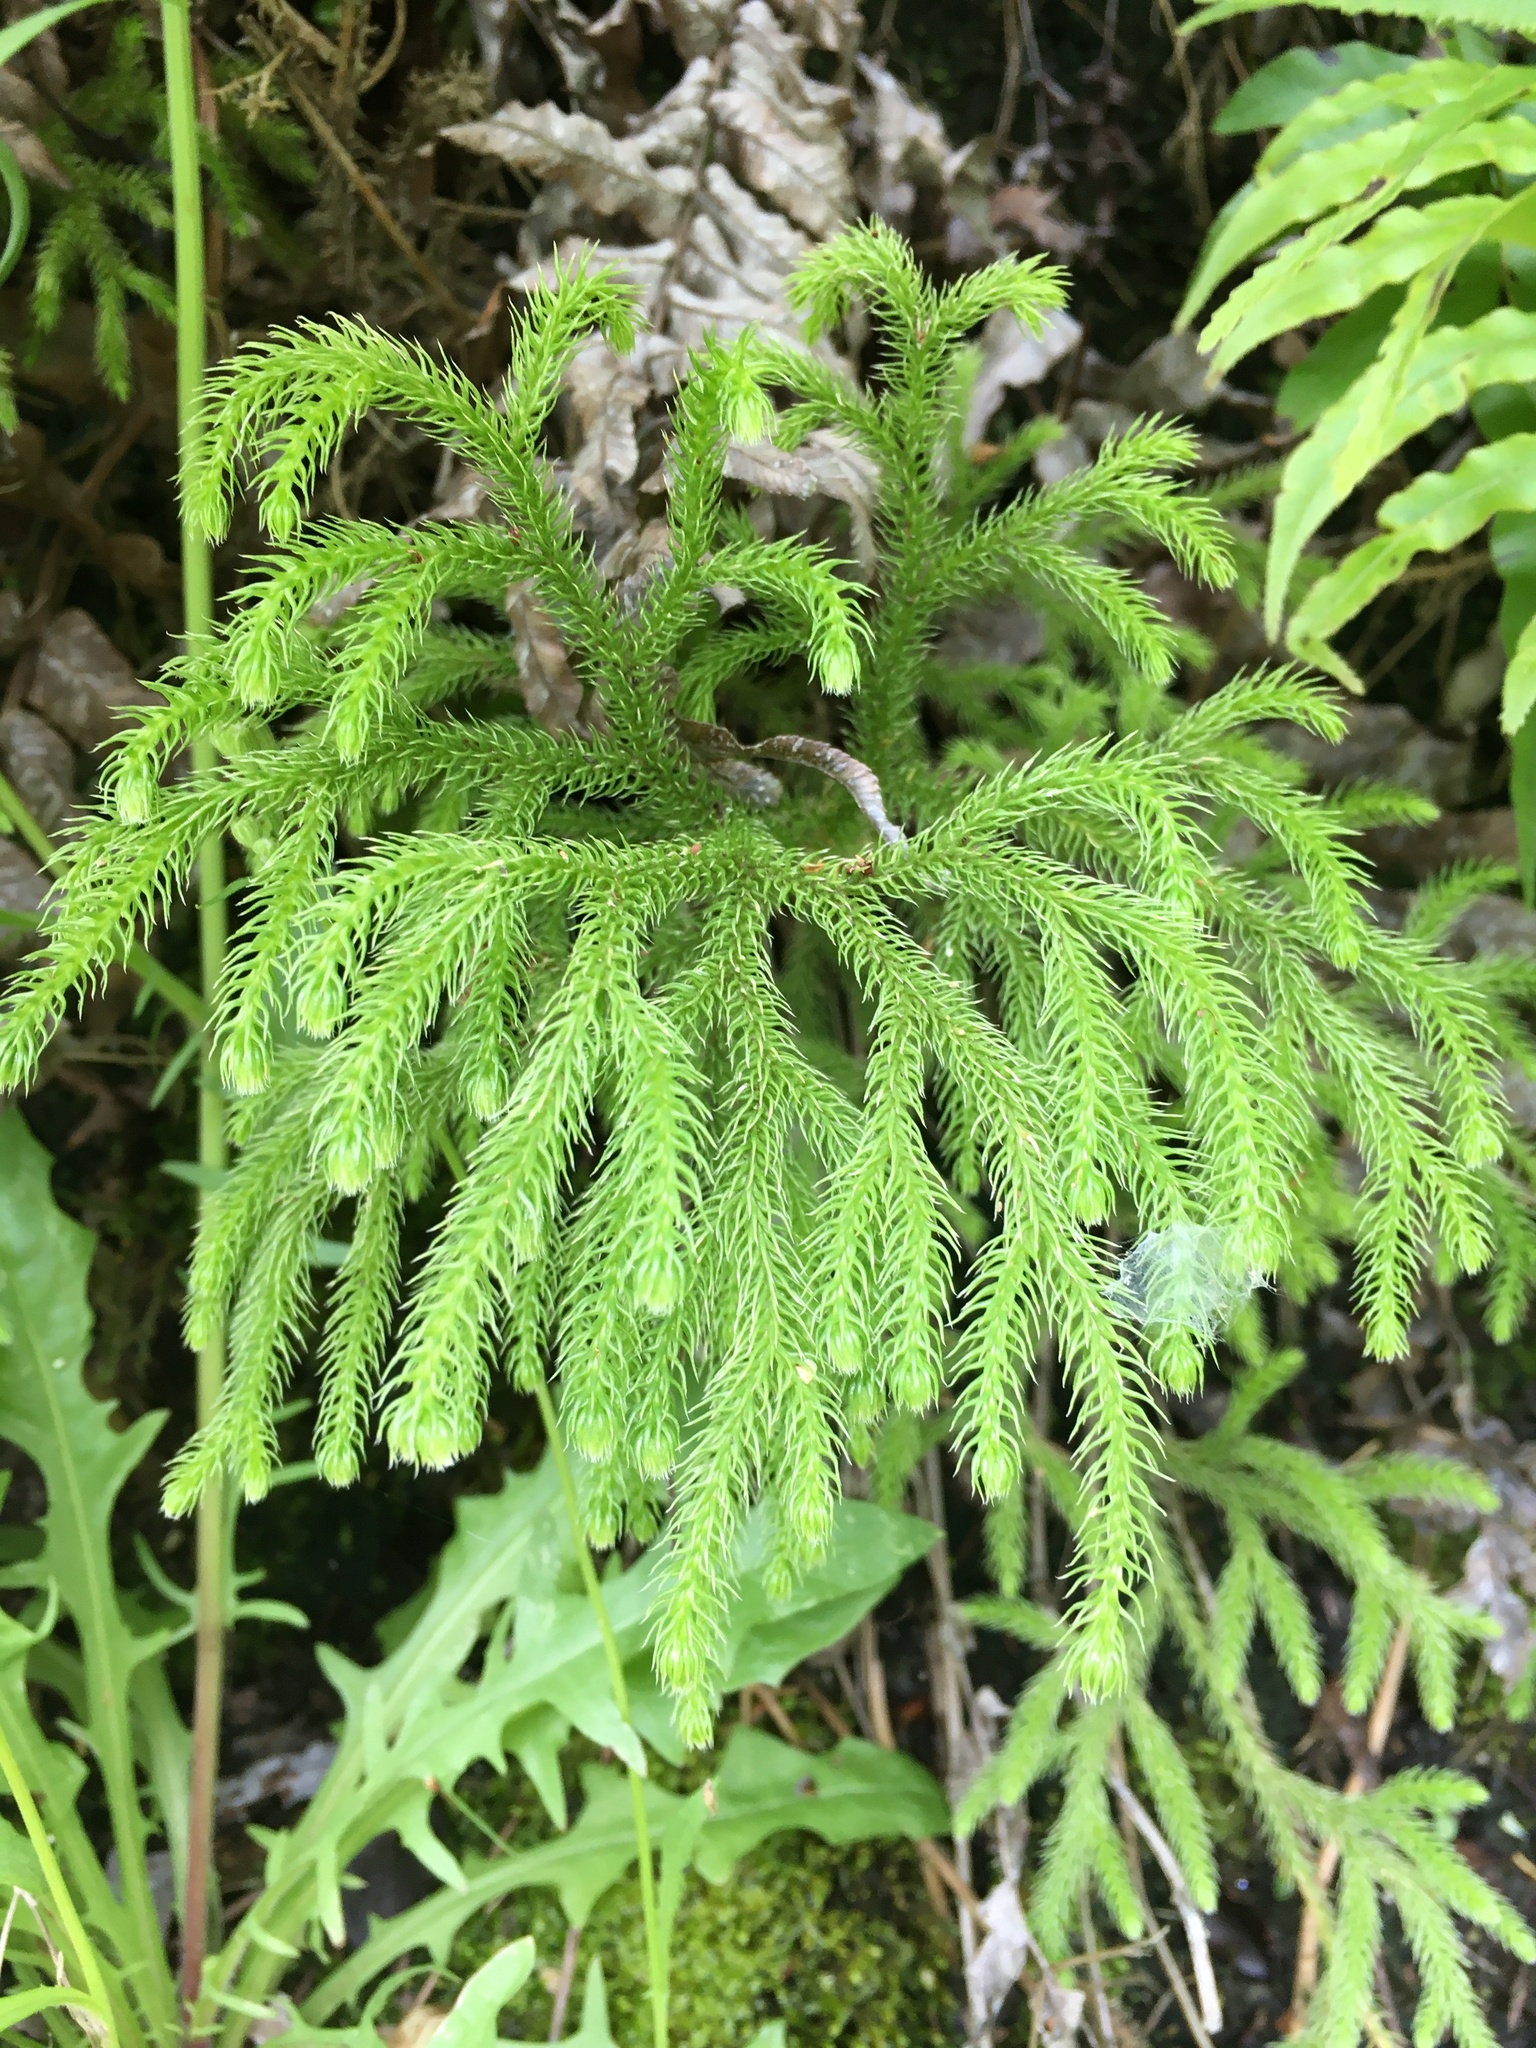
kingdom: Plantae
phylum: Tracheophyta
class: Lycopodiopsida
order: Lycopodiales
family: Lycopodiaceae
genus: Palhinhaea
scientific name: Palhinhaea cernua
